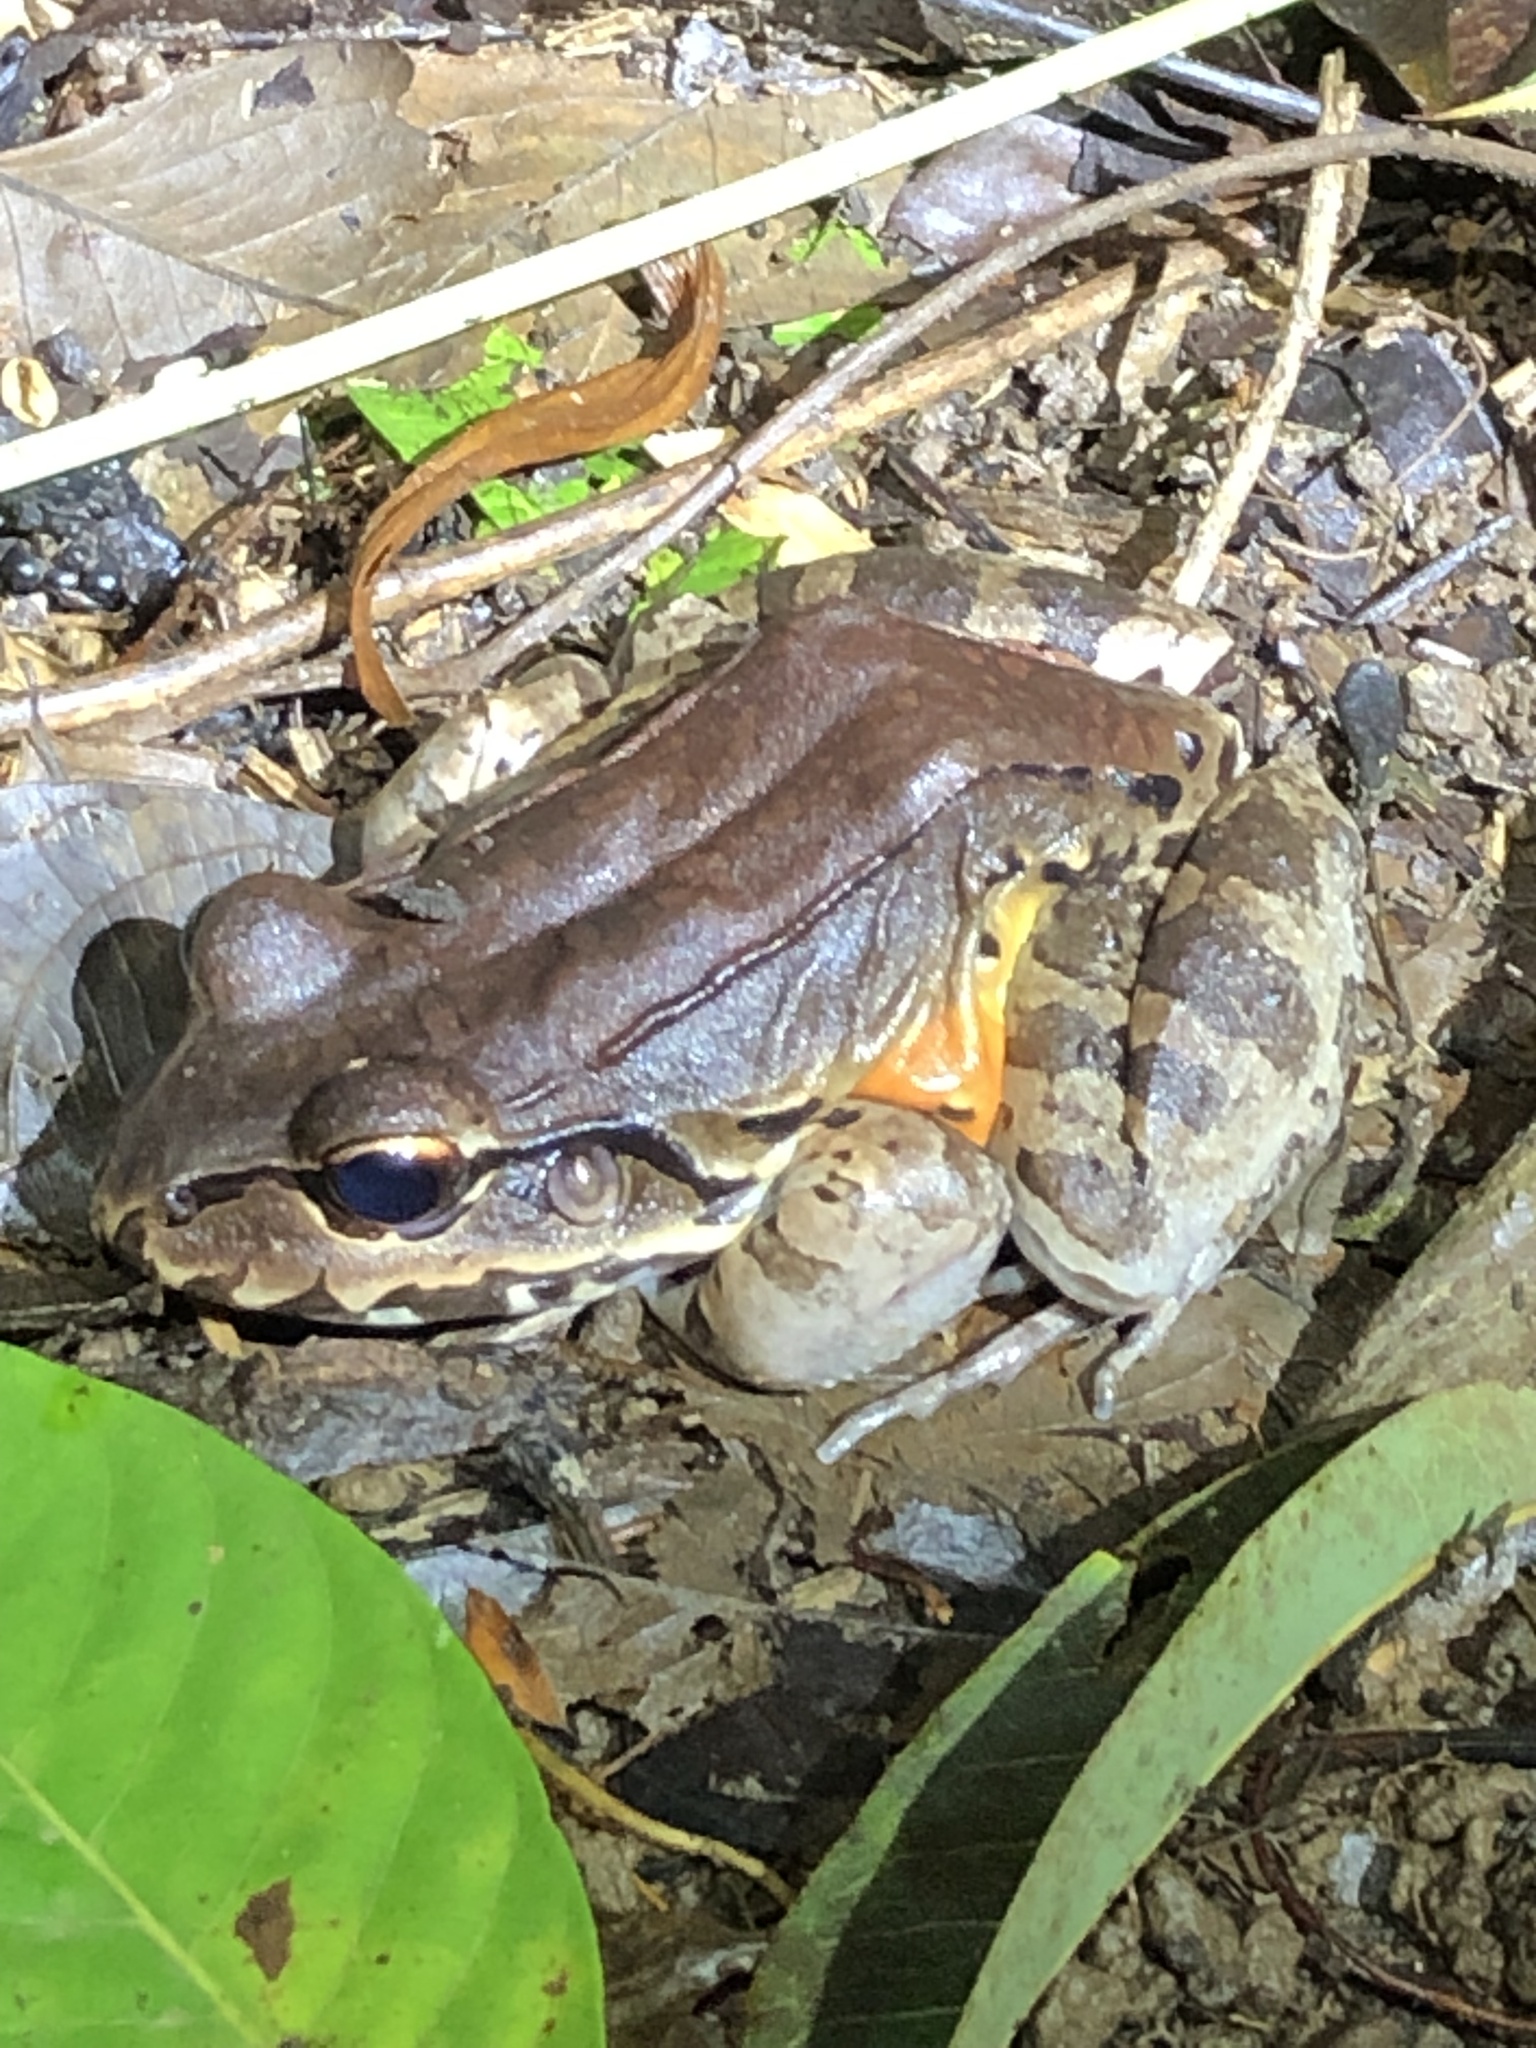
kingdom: Animalia
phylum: Chordata
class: Amphibia
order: Anura
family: Leptodactylidae
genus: Leptodactylus
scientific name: Leptodactylus savagei
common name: Savage's thin-toed frog
